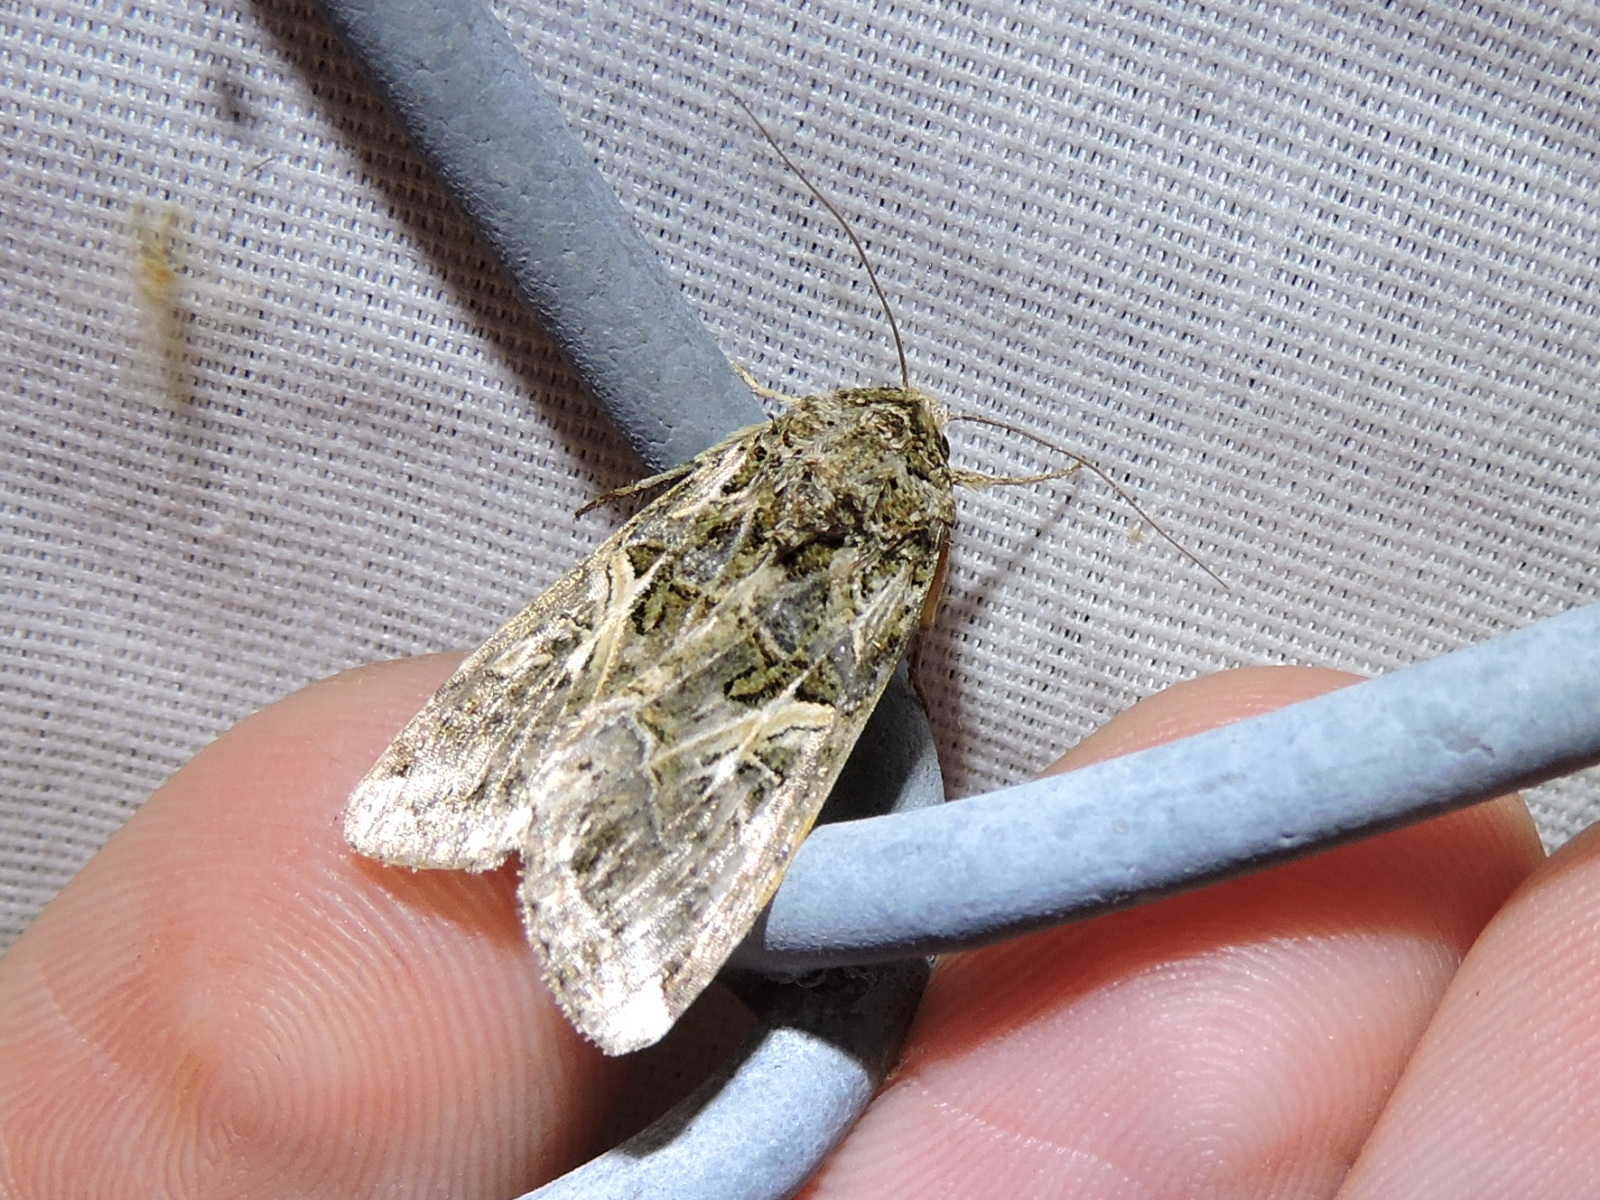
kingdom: Animalia
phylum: Arthropoda
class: Insecta
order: Lepidoptera
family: Noctuidae
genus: Spodoptera
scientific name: Spodoptera ornithogalli
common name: Yellow-striped armyworm
